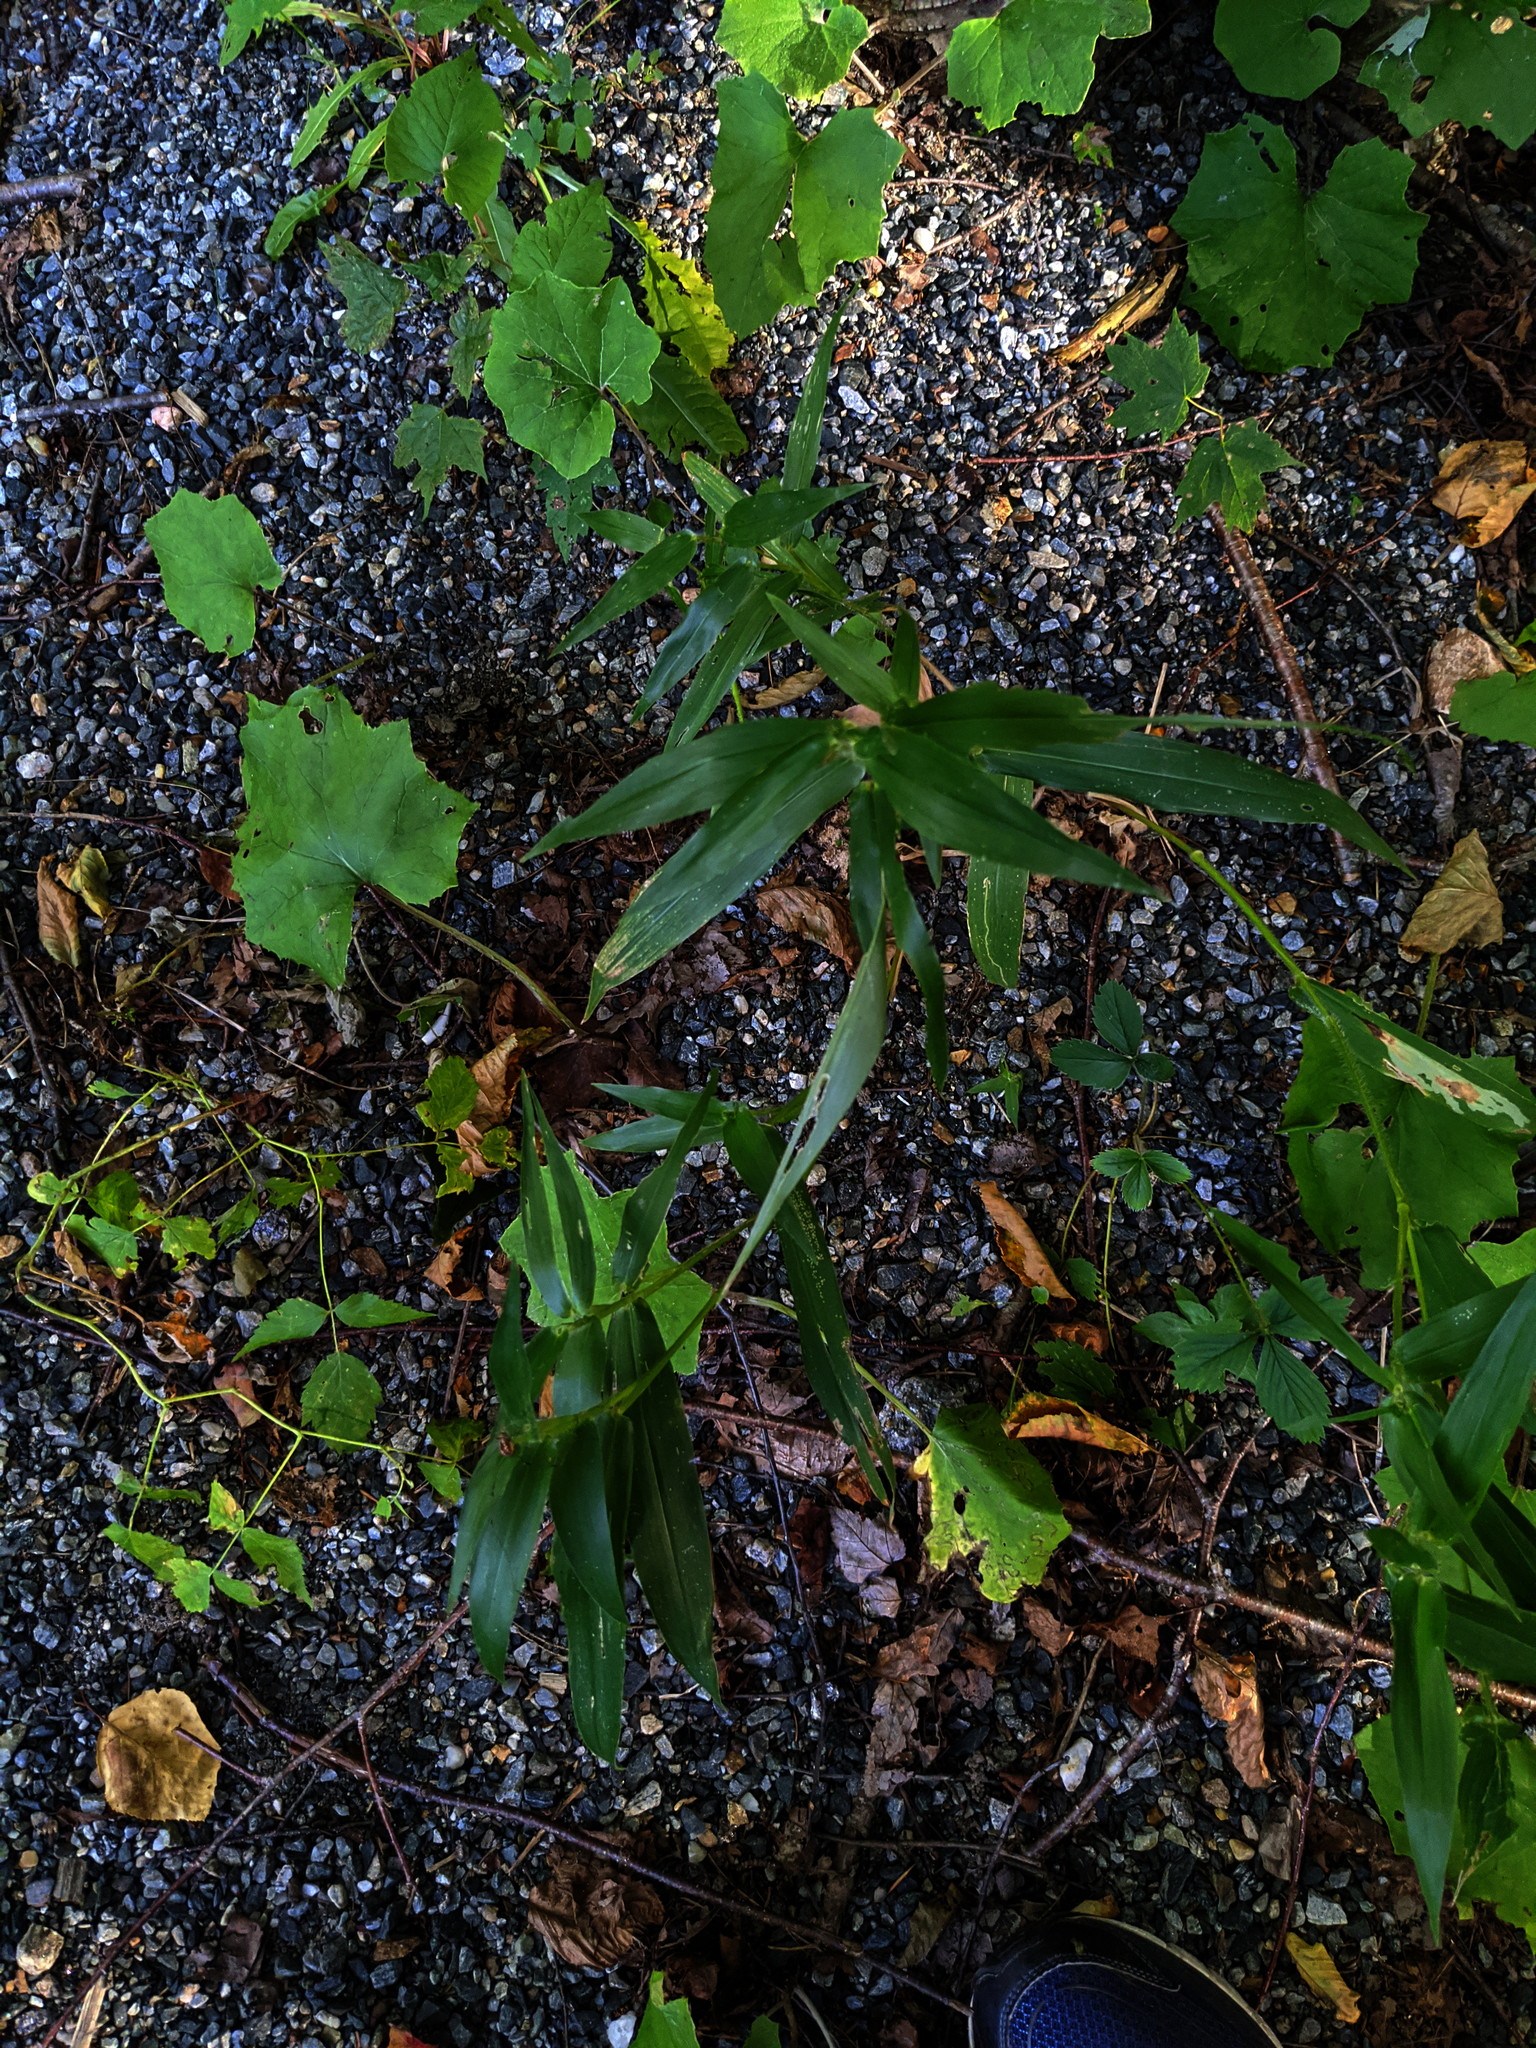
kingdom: Plantae
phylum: Tracheophyta
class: Magnoliopsida
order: Asterales
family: Asteraceae
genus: Tussilago
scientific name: Tussilago farfara
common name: Coltsfoot
